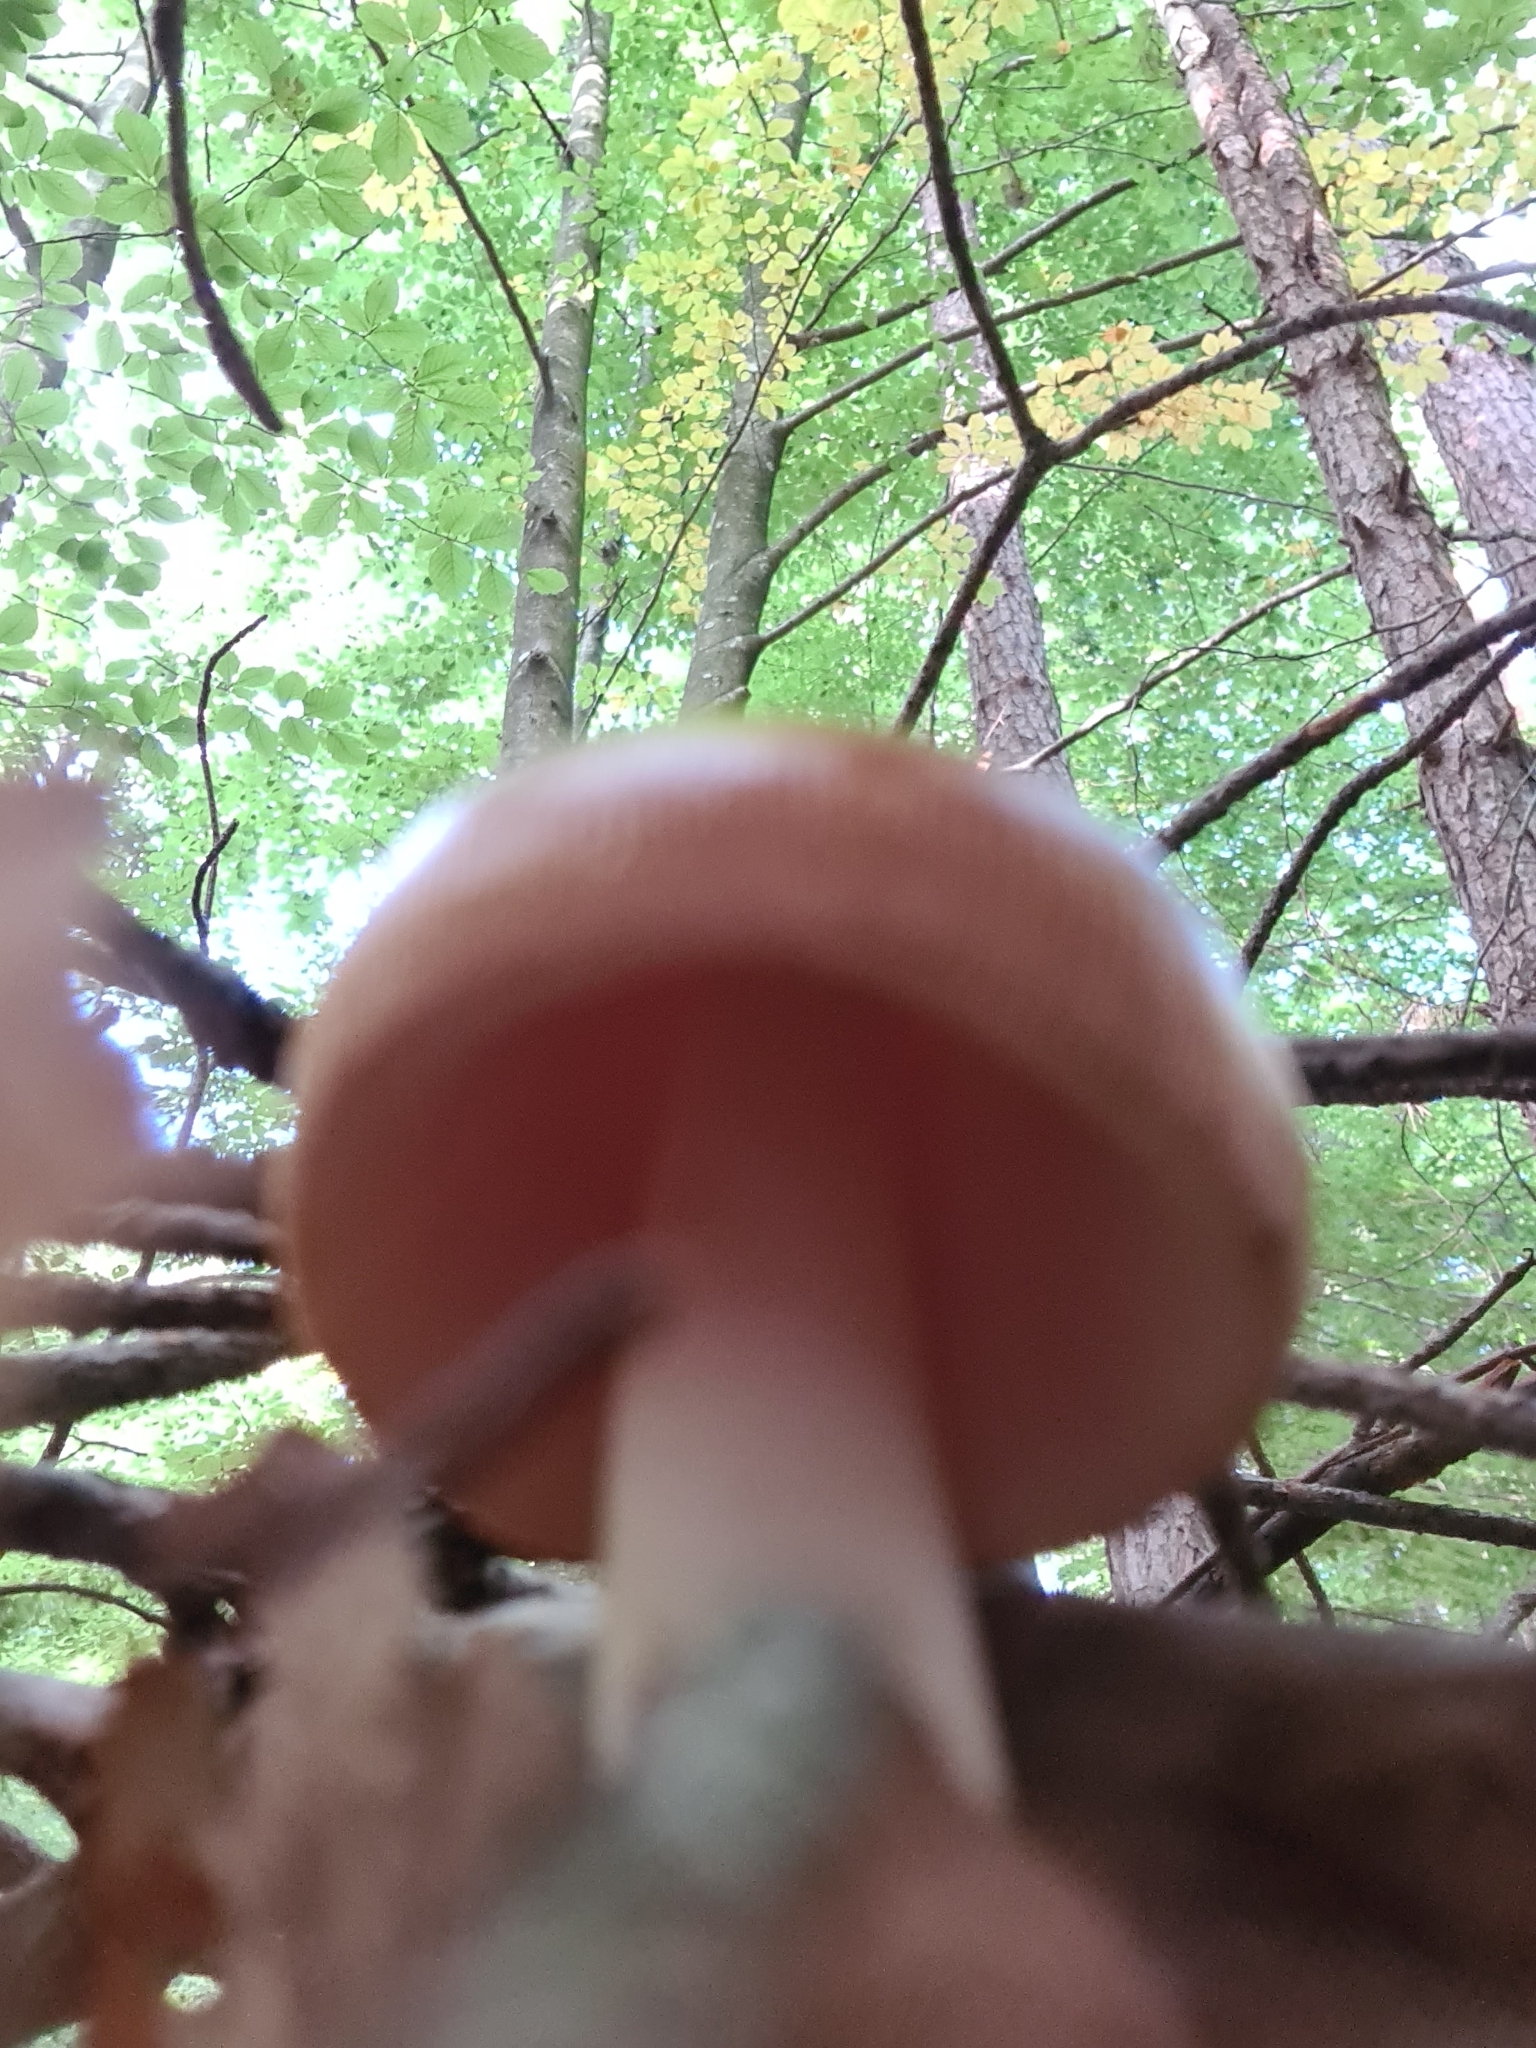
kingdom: Fungi
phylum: Basidiomycota
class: Agaricomycetes
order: Agaricales
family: Amanitaceae
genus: Amanita
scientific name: Amanita fulva
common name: Tawny grisette
